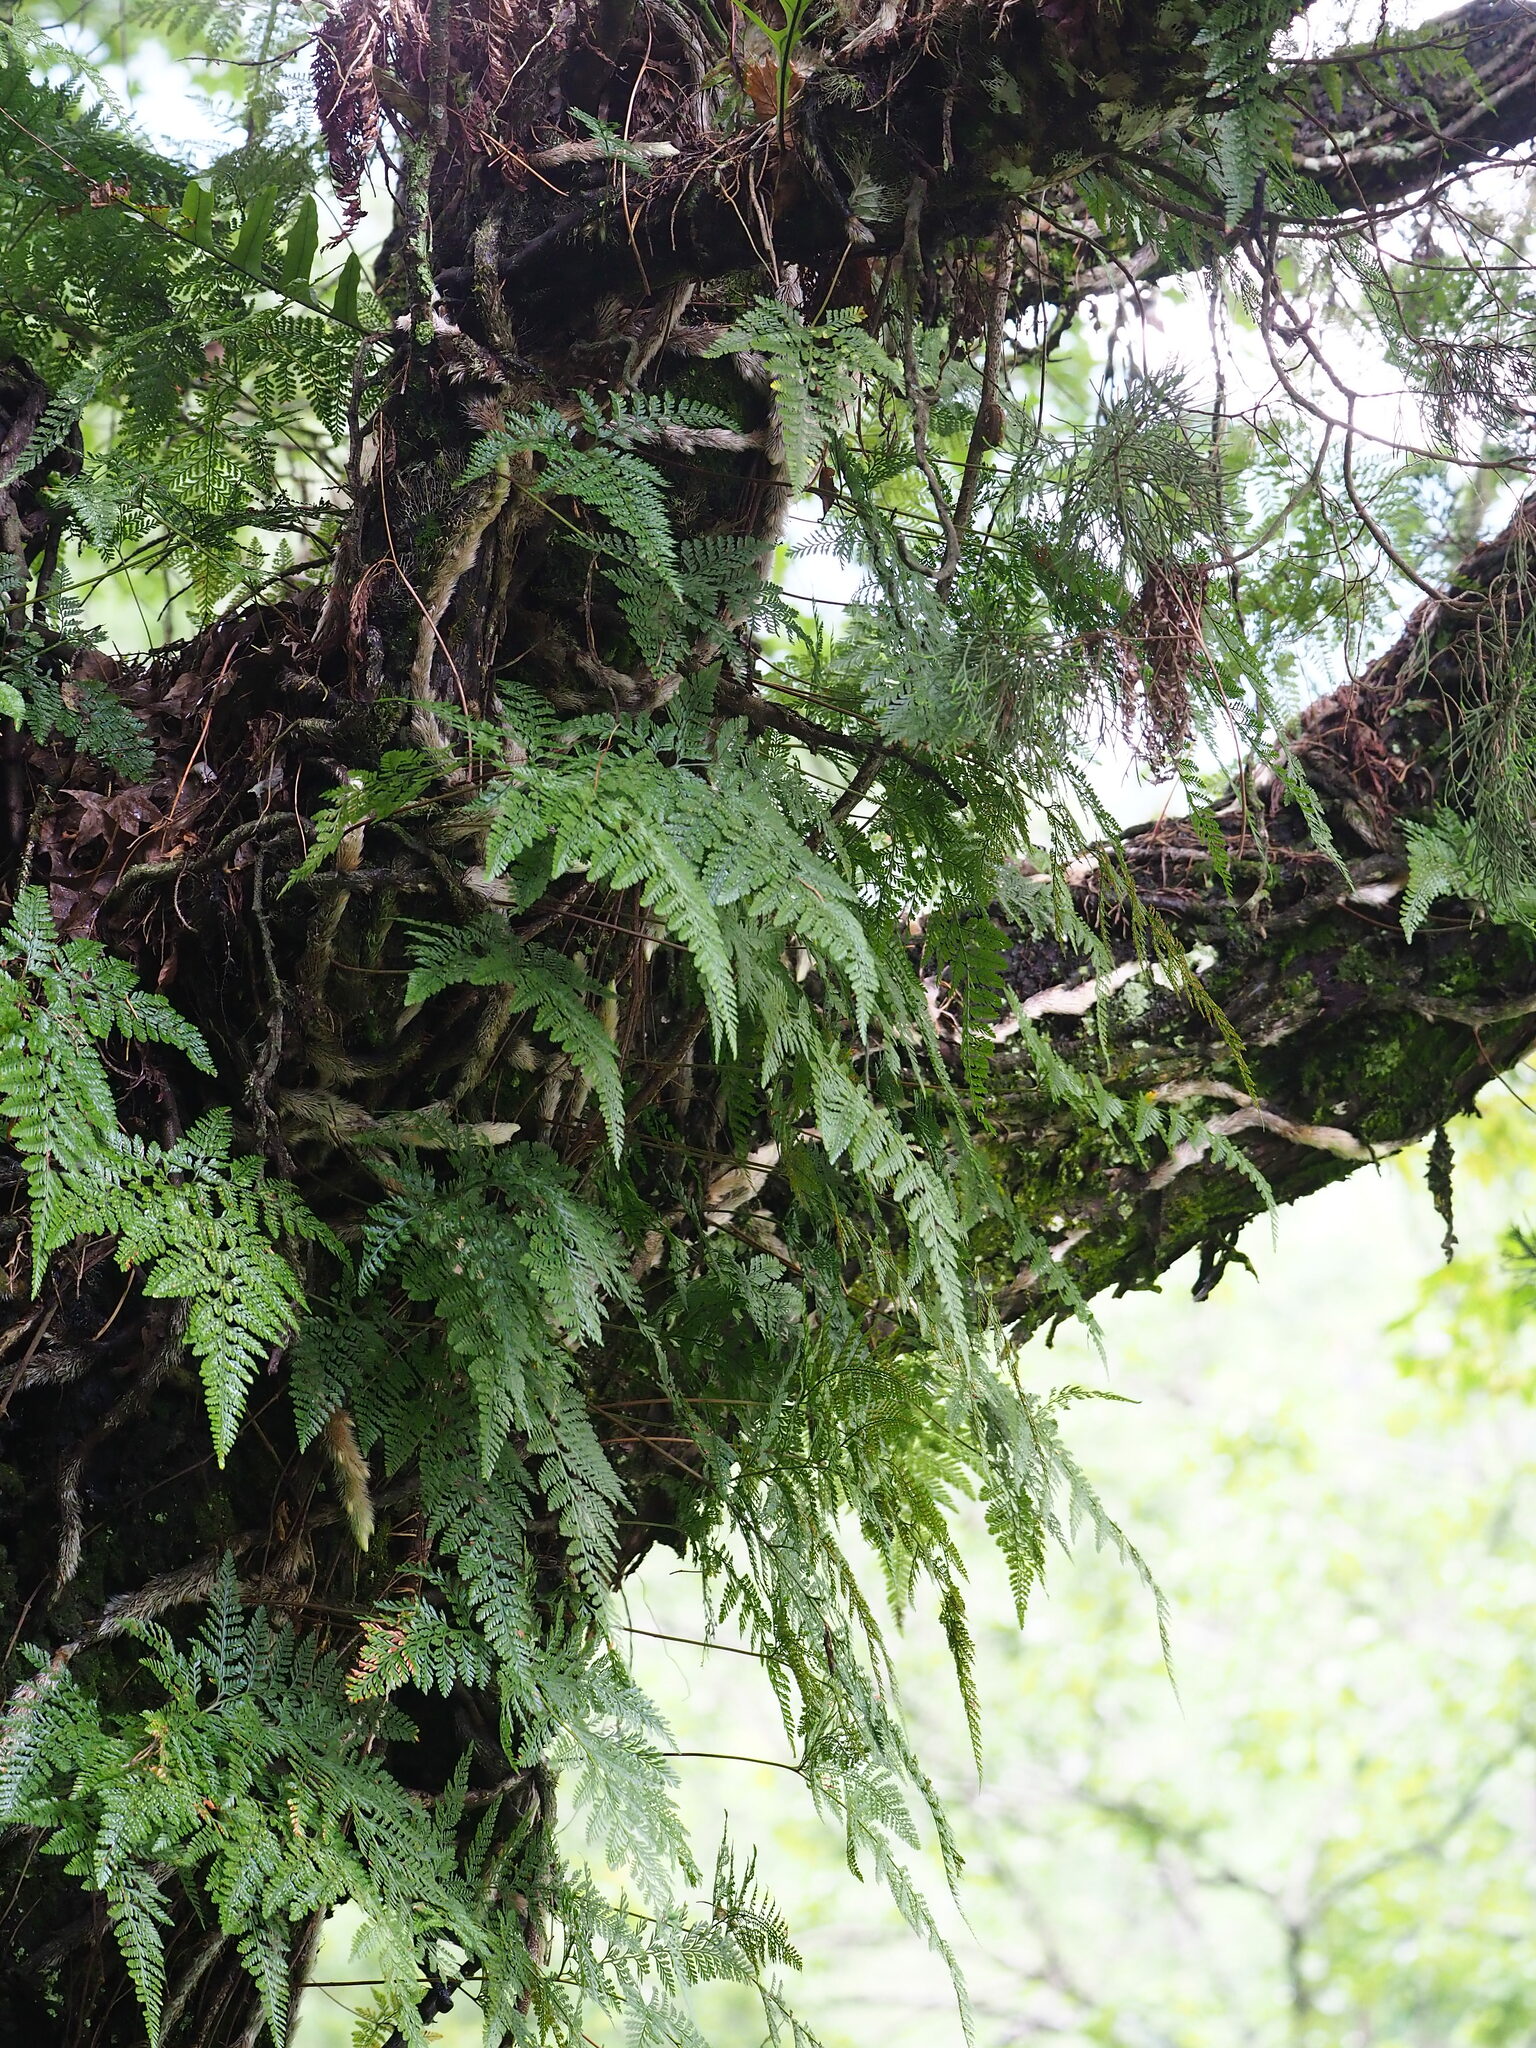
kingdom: Plantae
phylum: Tracheophyta
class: Polypodiopsida
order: Polypodiales
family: Davalliaceae
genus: Davallia
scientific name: Davallia griffithiana
